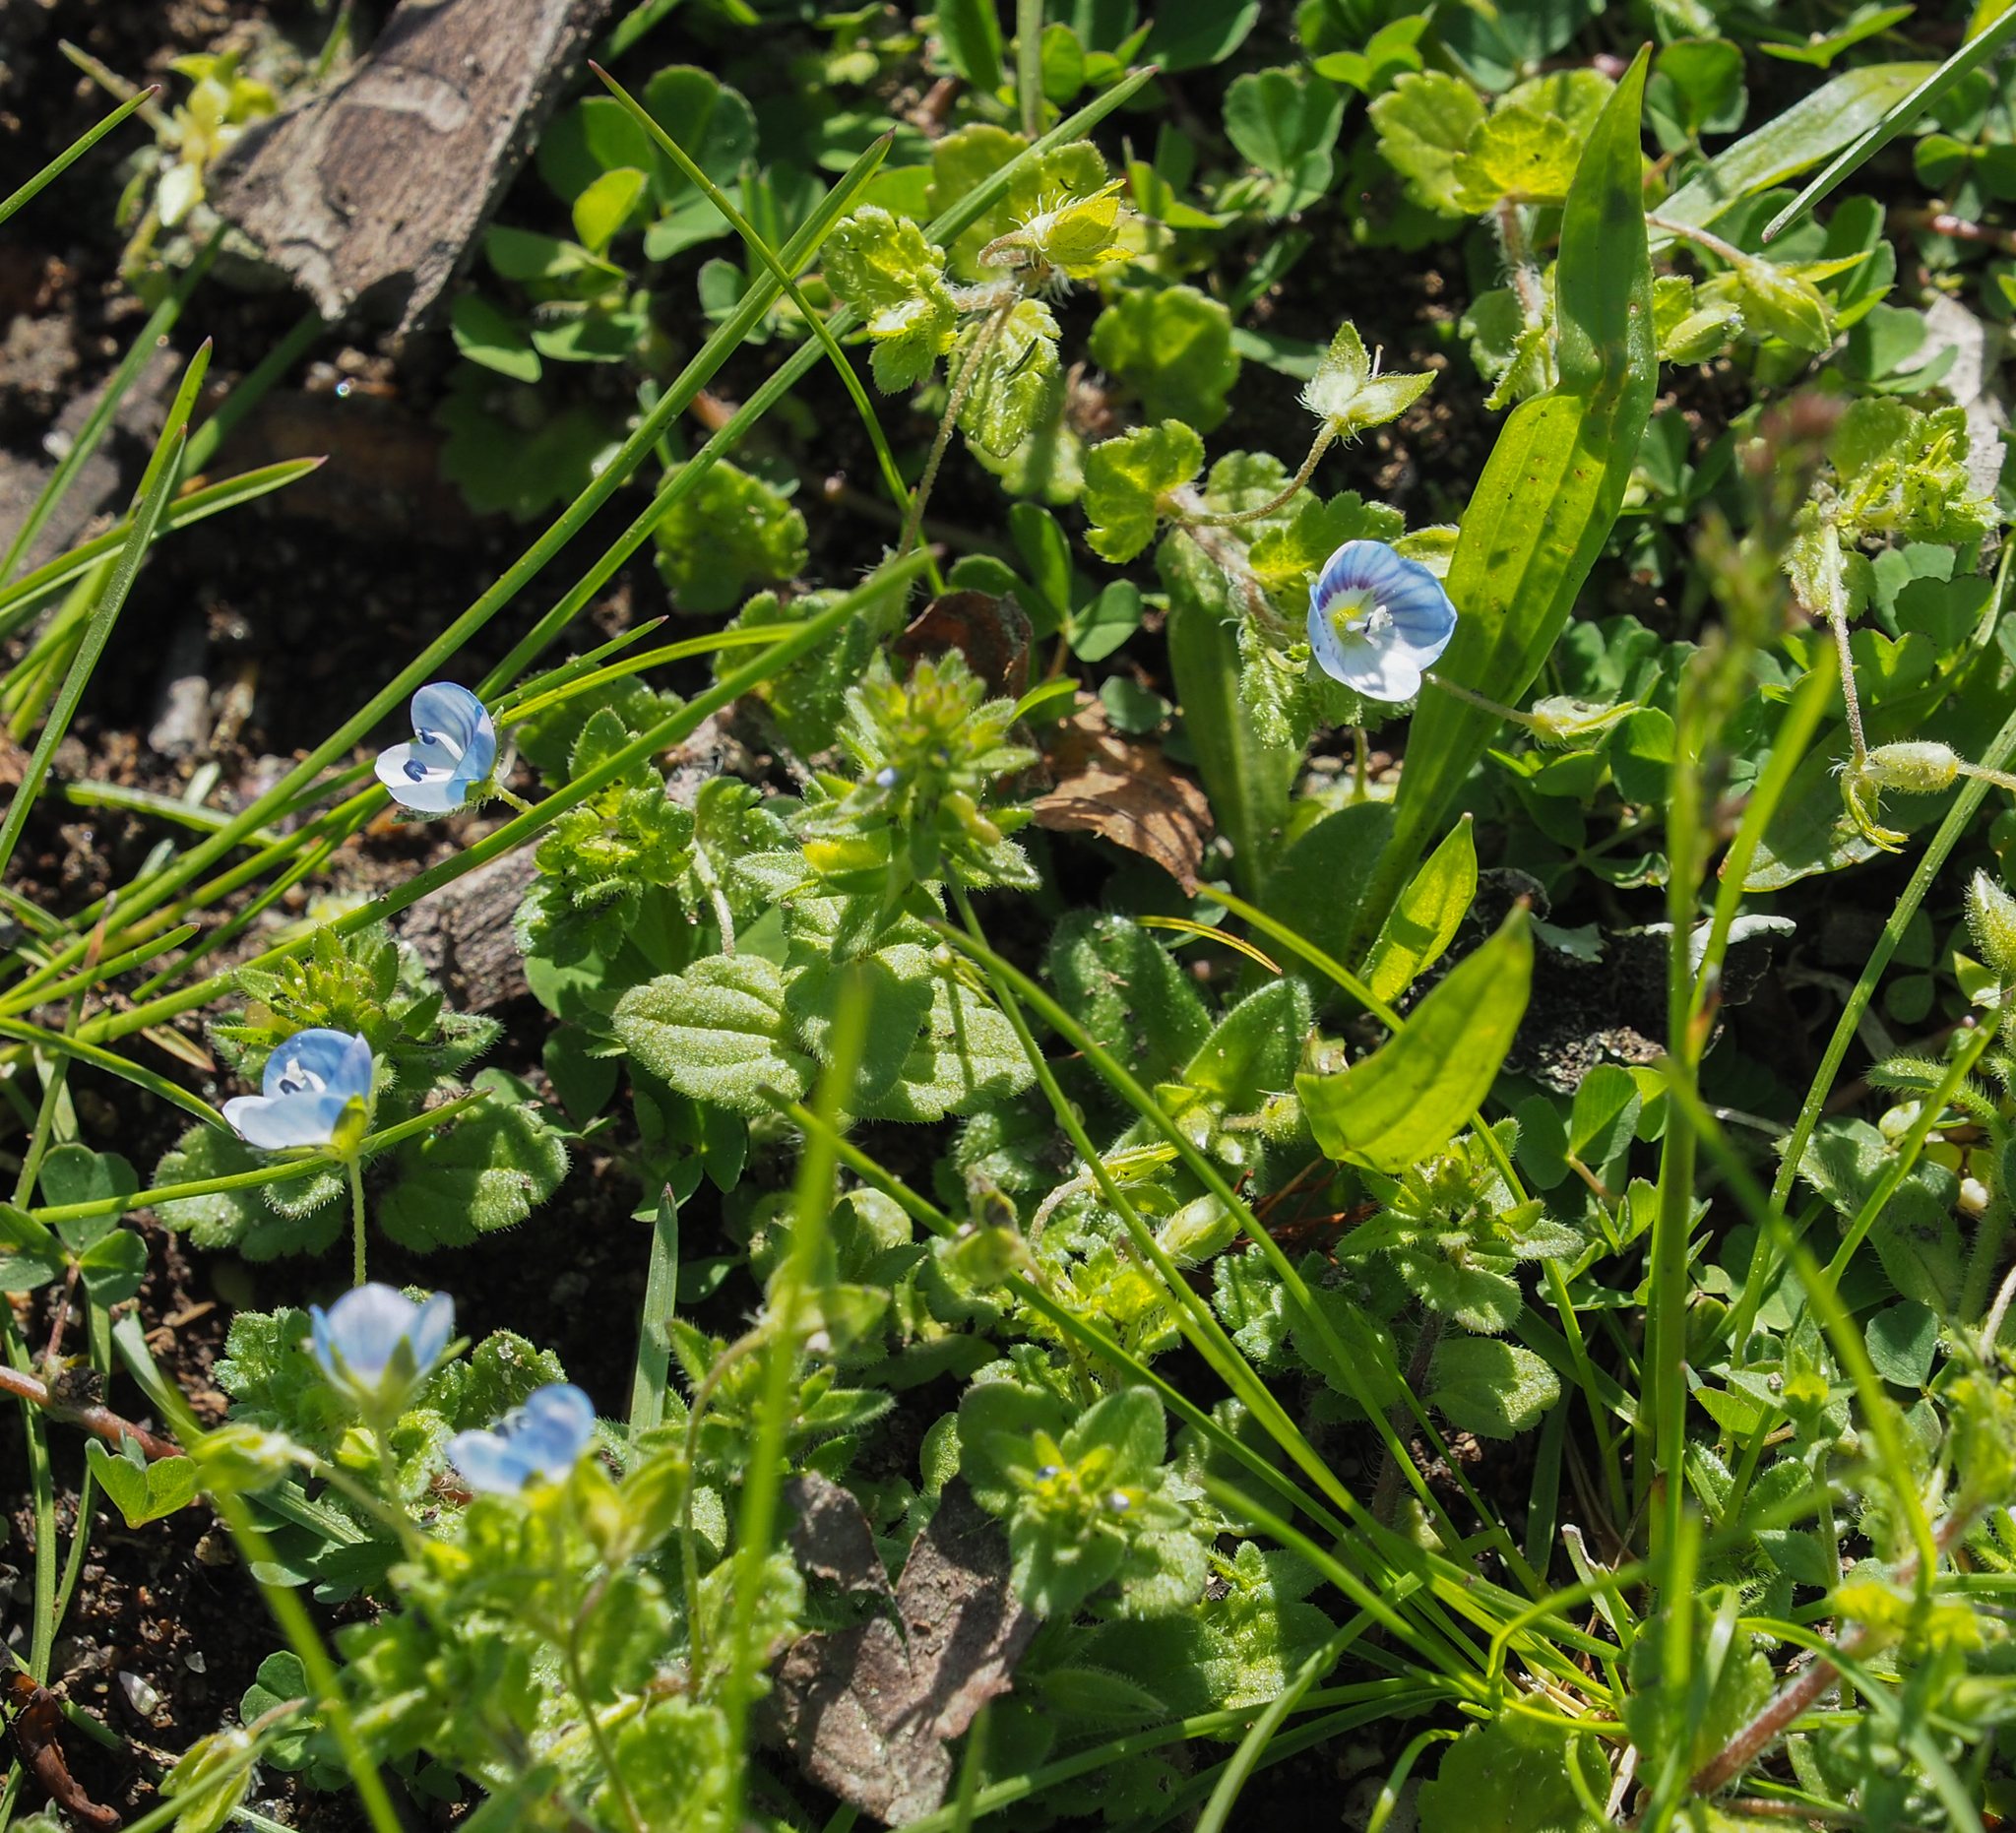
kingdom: Plantae
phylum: Tracheophyta
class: Magnoliopsida
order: Lamiales
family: Plantaginaceae
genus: Veronica
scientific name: Veronica persica
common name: Common field-speedwell
